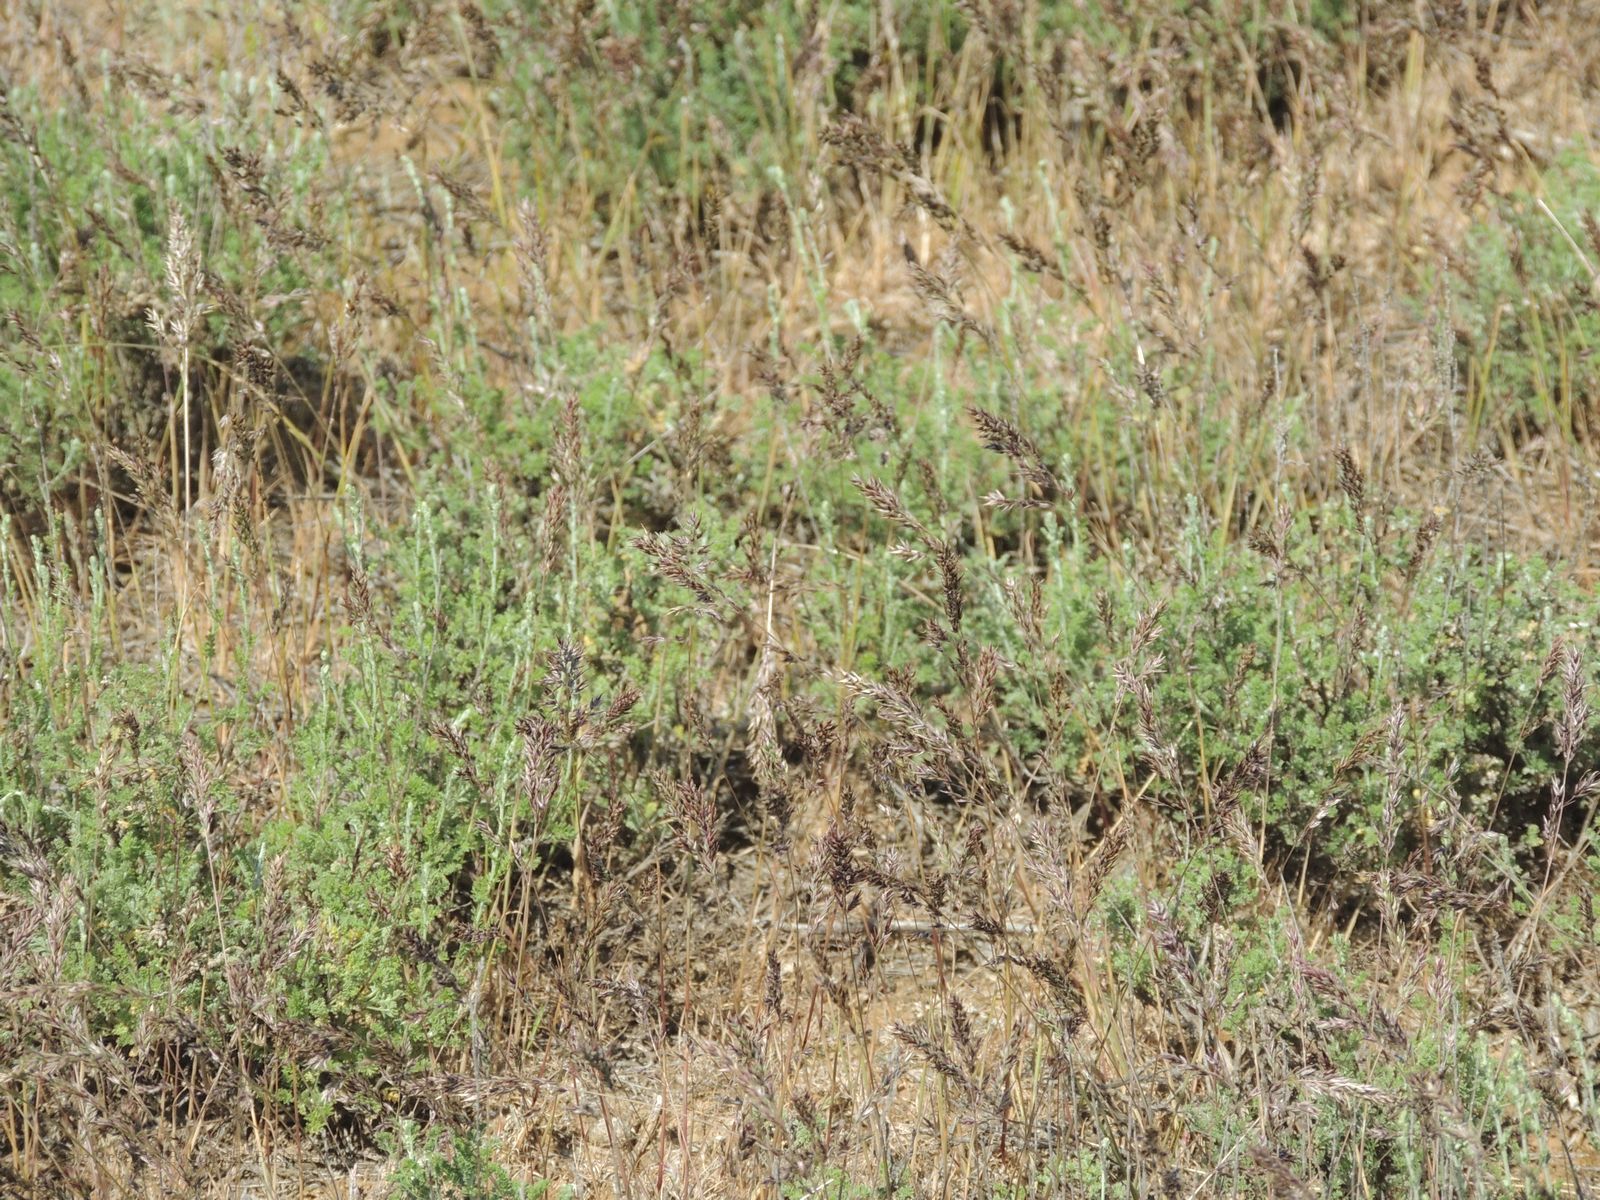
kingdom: Plantae
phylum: Tracheophyta
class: Liliopsida
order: Poales
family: Poaceae
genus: Poa
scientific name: Poa bulbosa
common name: Bulbous bluegrass
